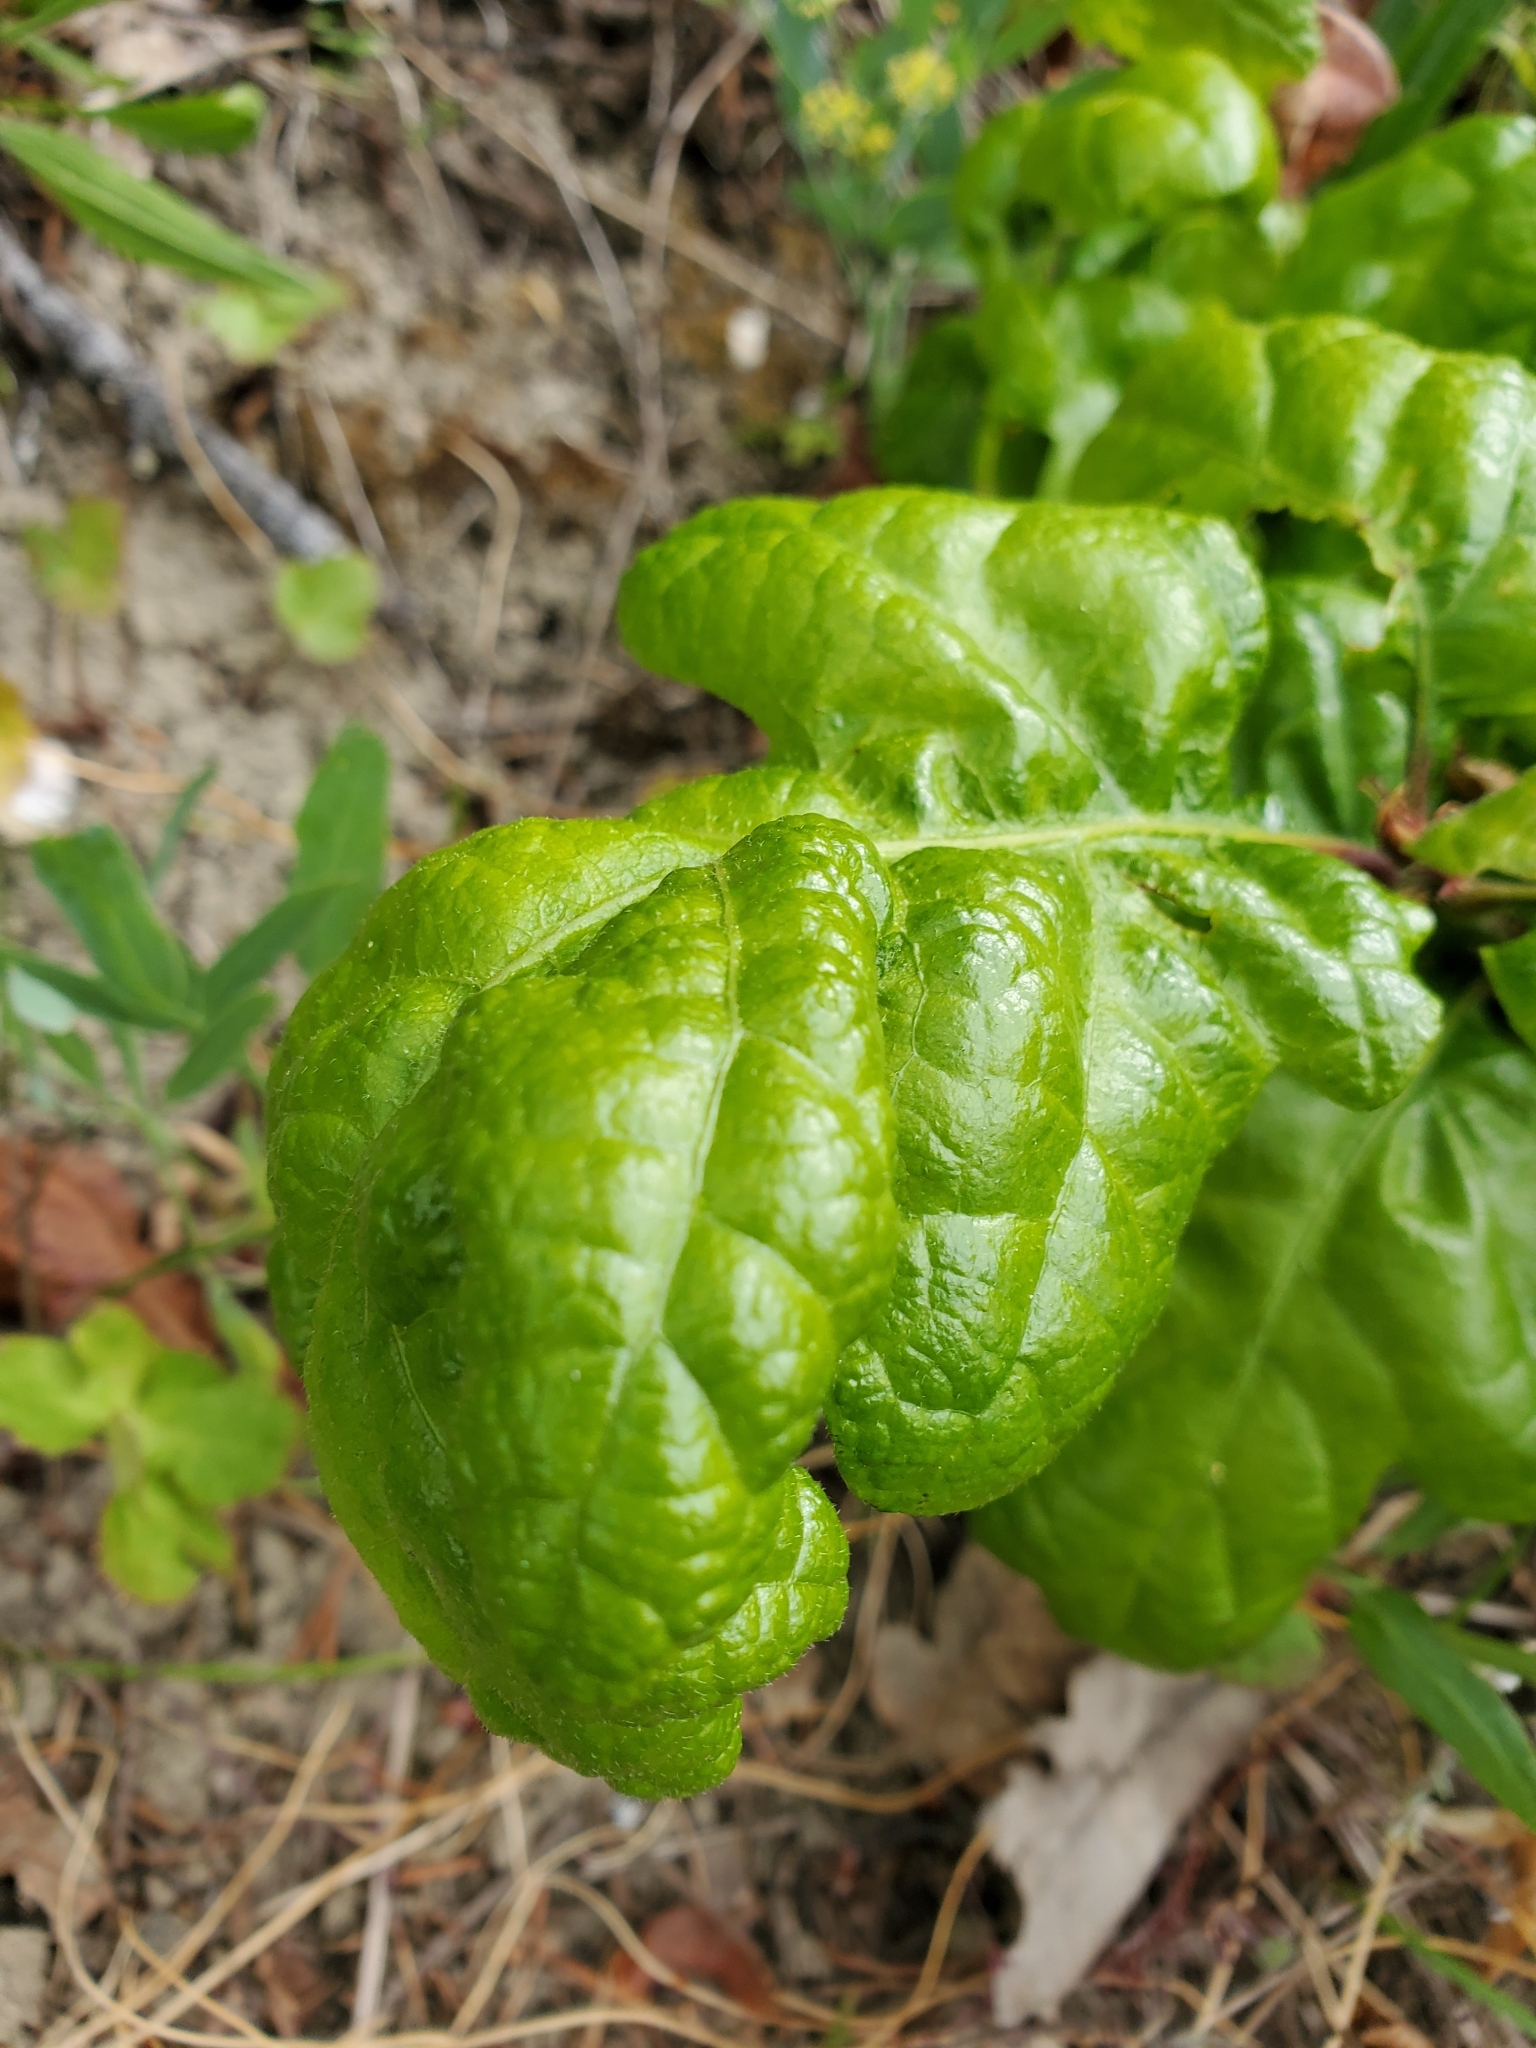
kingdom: Plantae
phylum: Tracheophyta
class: Magnoliopsida
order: Fagales
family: Fagaceae
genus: Quercus
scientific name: Quercus garryana
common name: Garry oak
